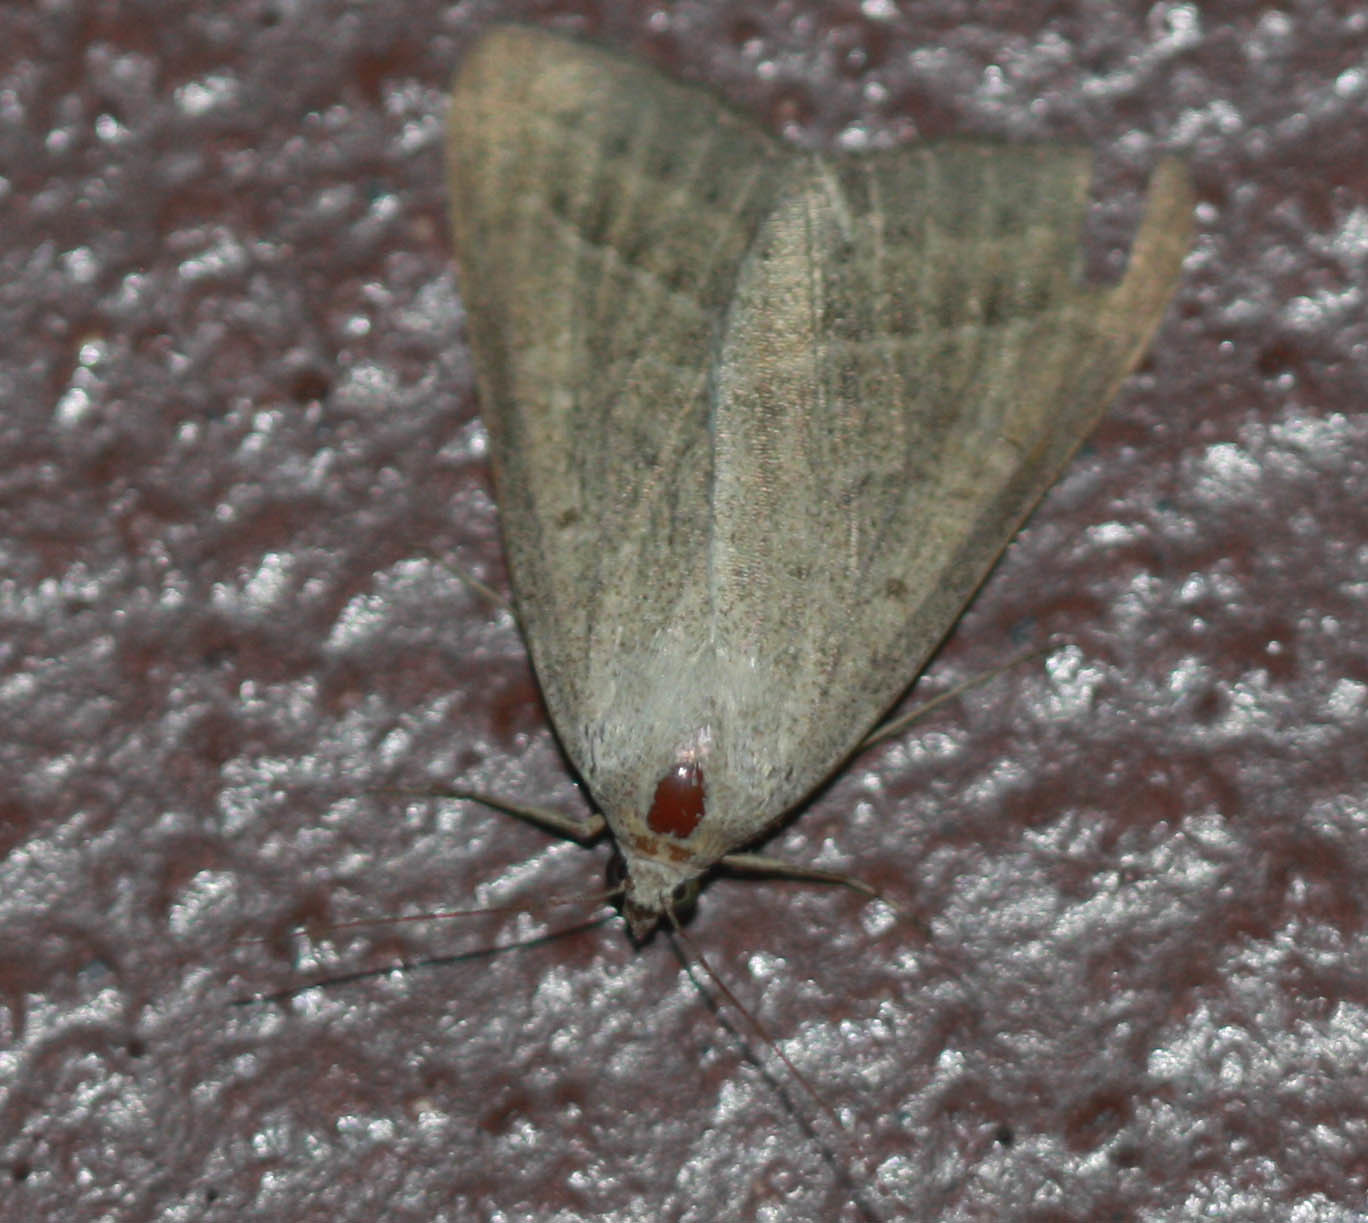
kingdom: Animalia
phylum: Arthropoda
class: Insecta
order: Lepidoptera
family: Erebidae
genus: Caenurgia
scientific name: Caenurgia togataria
